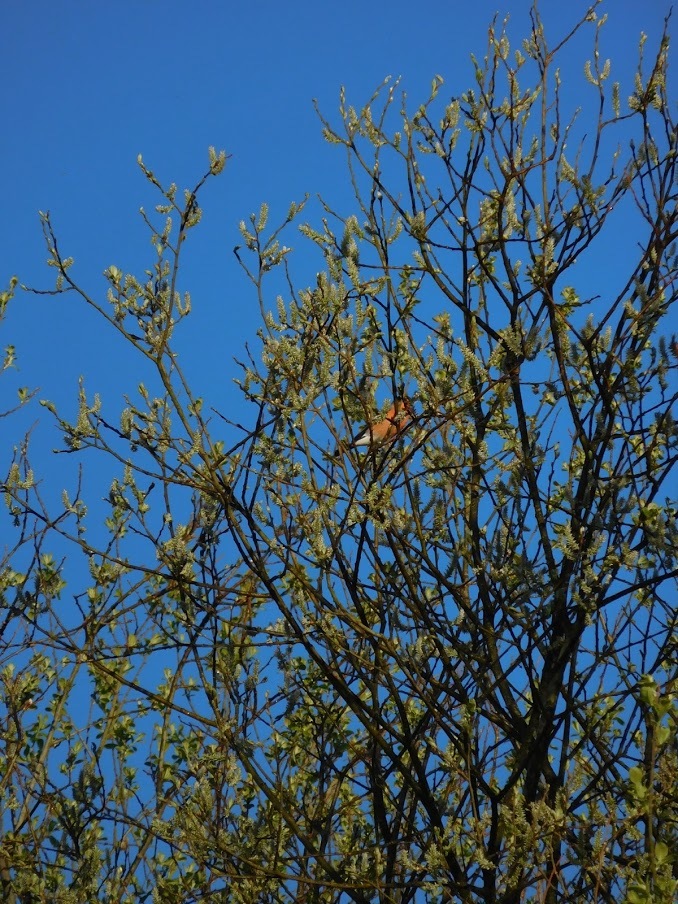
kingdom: Animalia
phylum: Chordata
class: Aves
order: Passeriformes
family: Fringillidae
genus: Pyrrhula
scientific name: Pyrrhula pyrrhula
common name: Eurasian bullfinch
